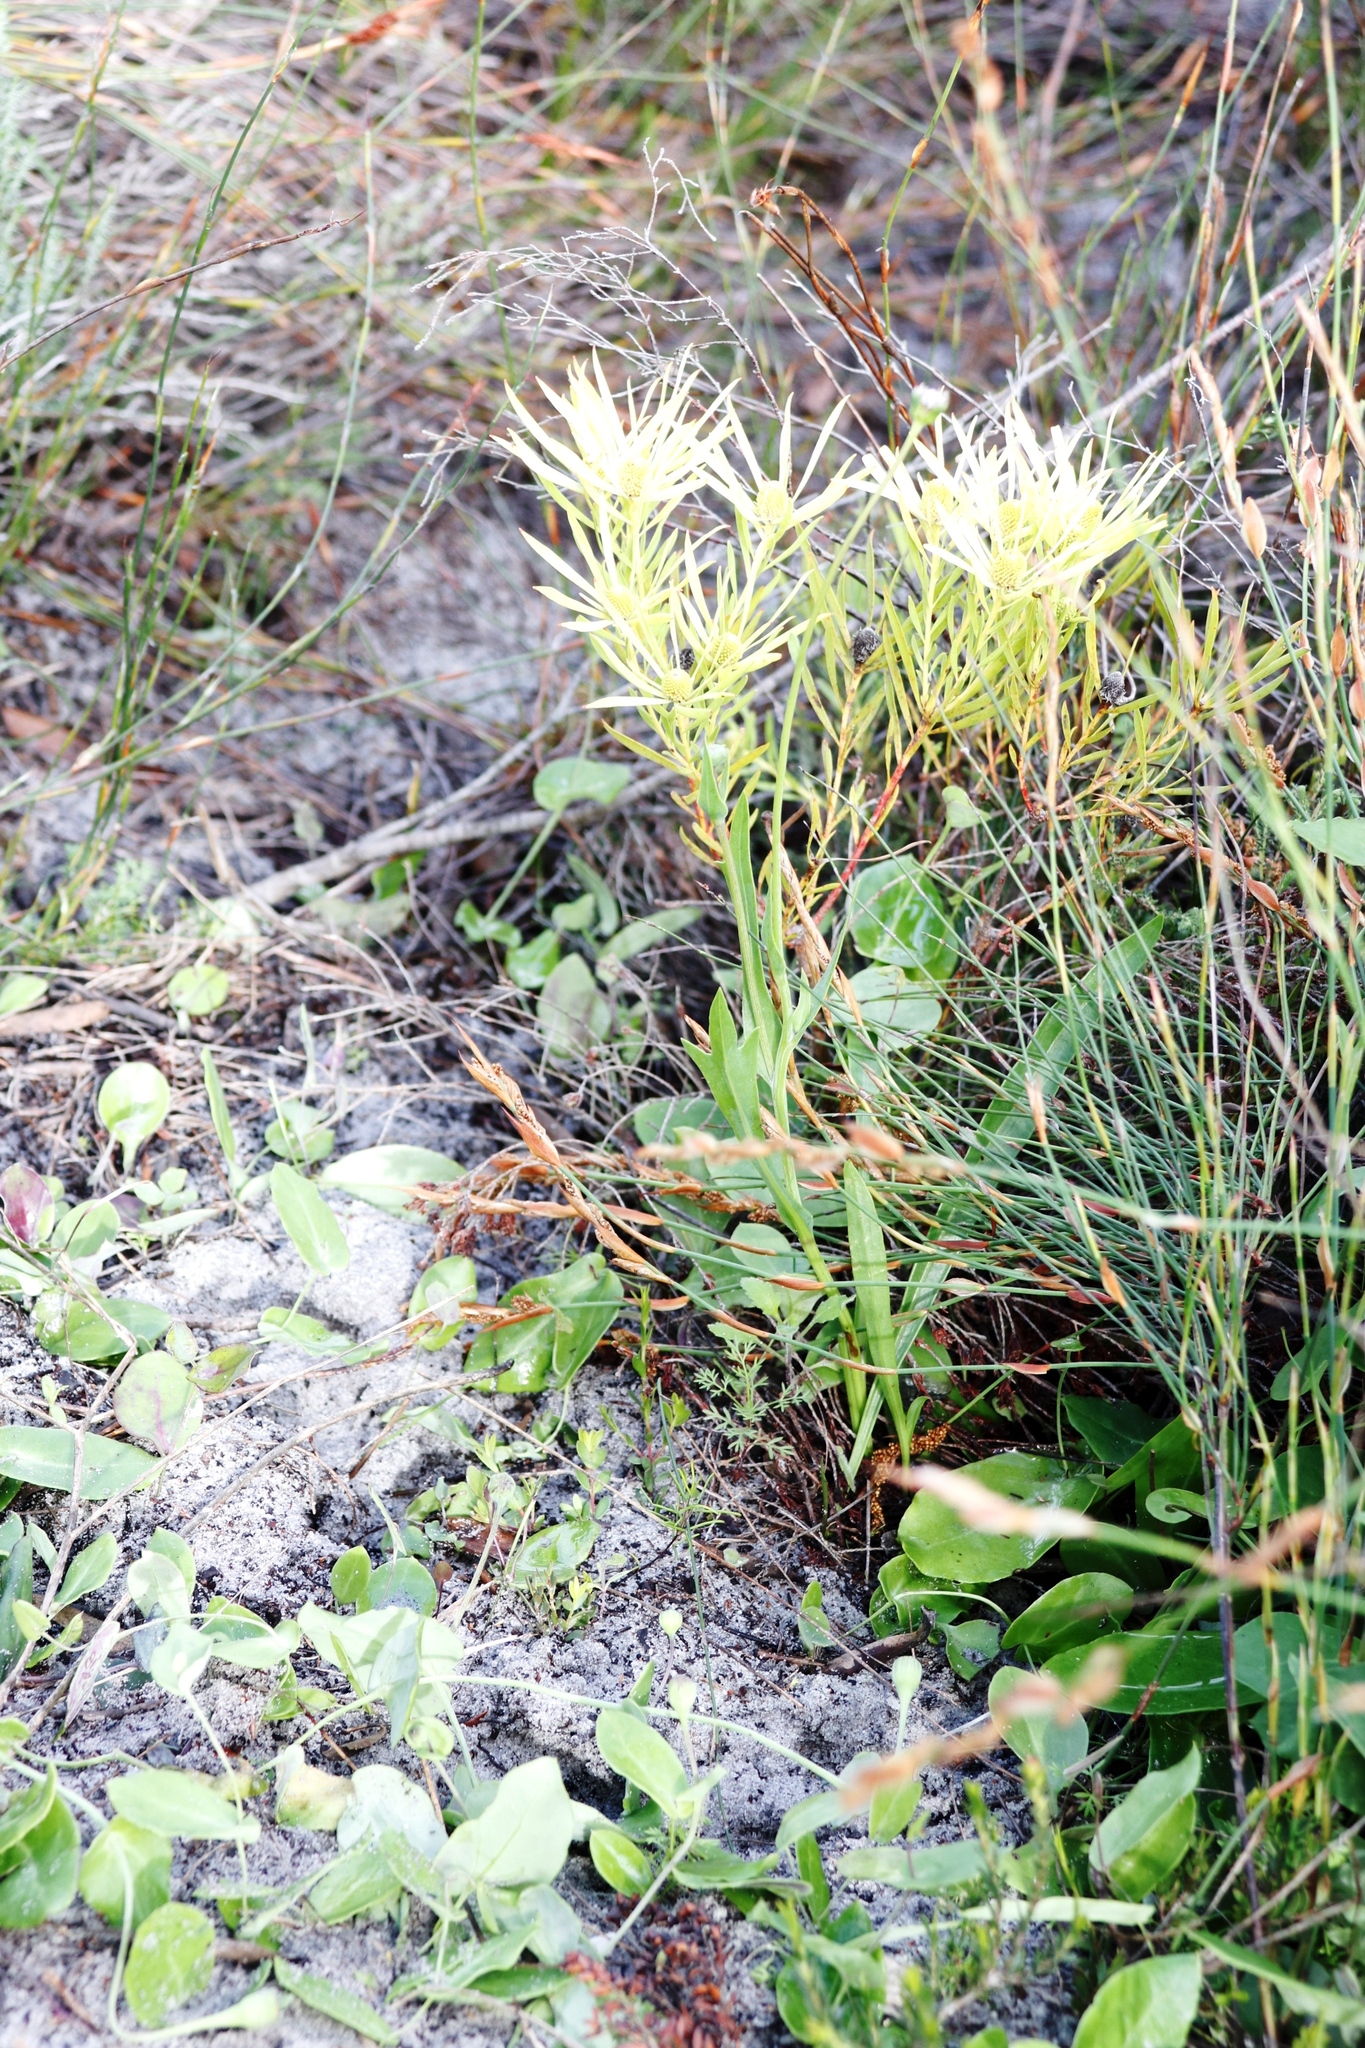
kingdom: Plantae
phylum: Tracheophyta
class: Magnoliopsida
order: Asterales
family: Asteraceae
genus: Othonna
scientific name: Othonna digitata
